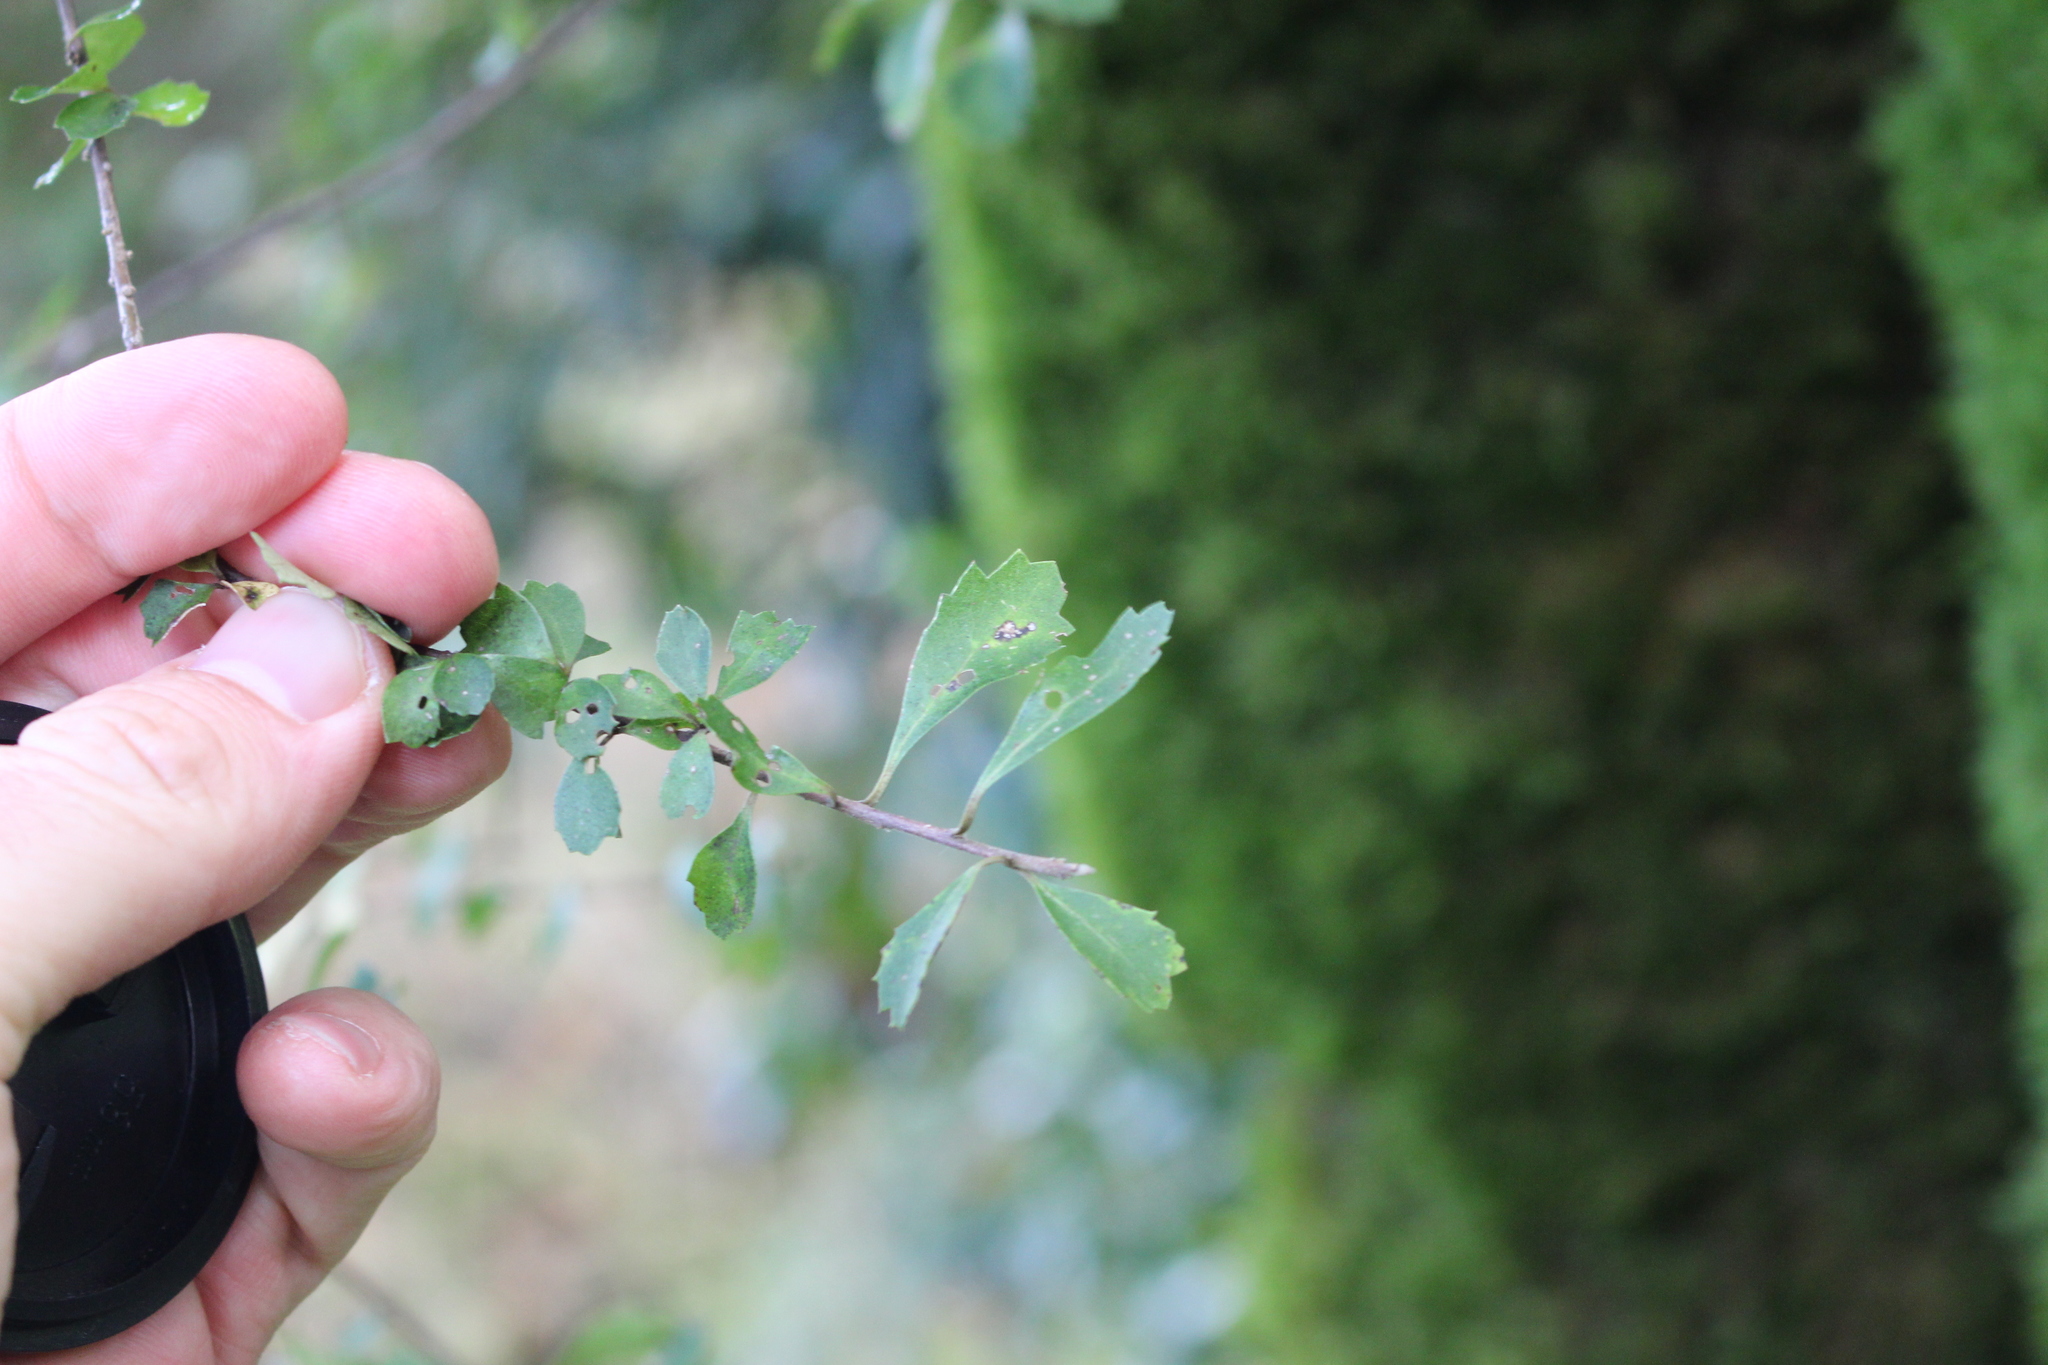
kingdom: Plantae
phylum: Tracheophyta
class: Magnoliopsida
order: Malvales
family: Malvaceae
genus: Hoheria
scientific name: Hoheria angustifolia
